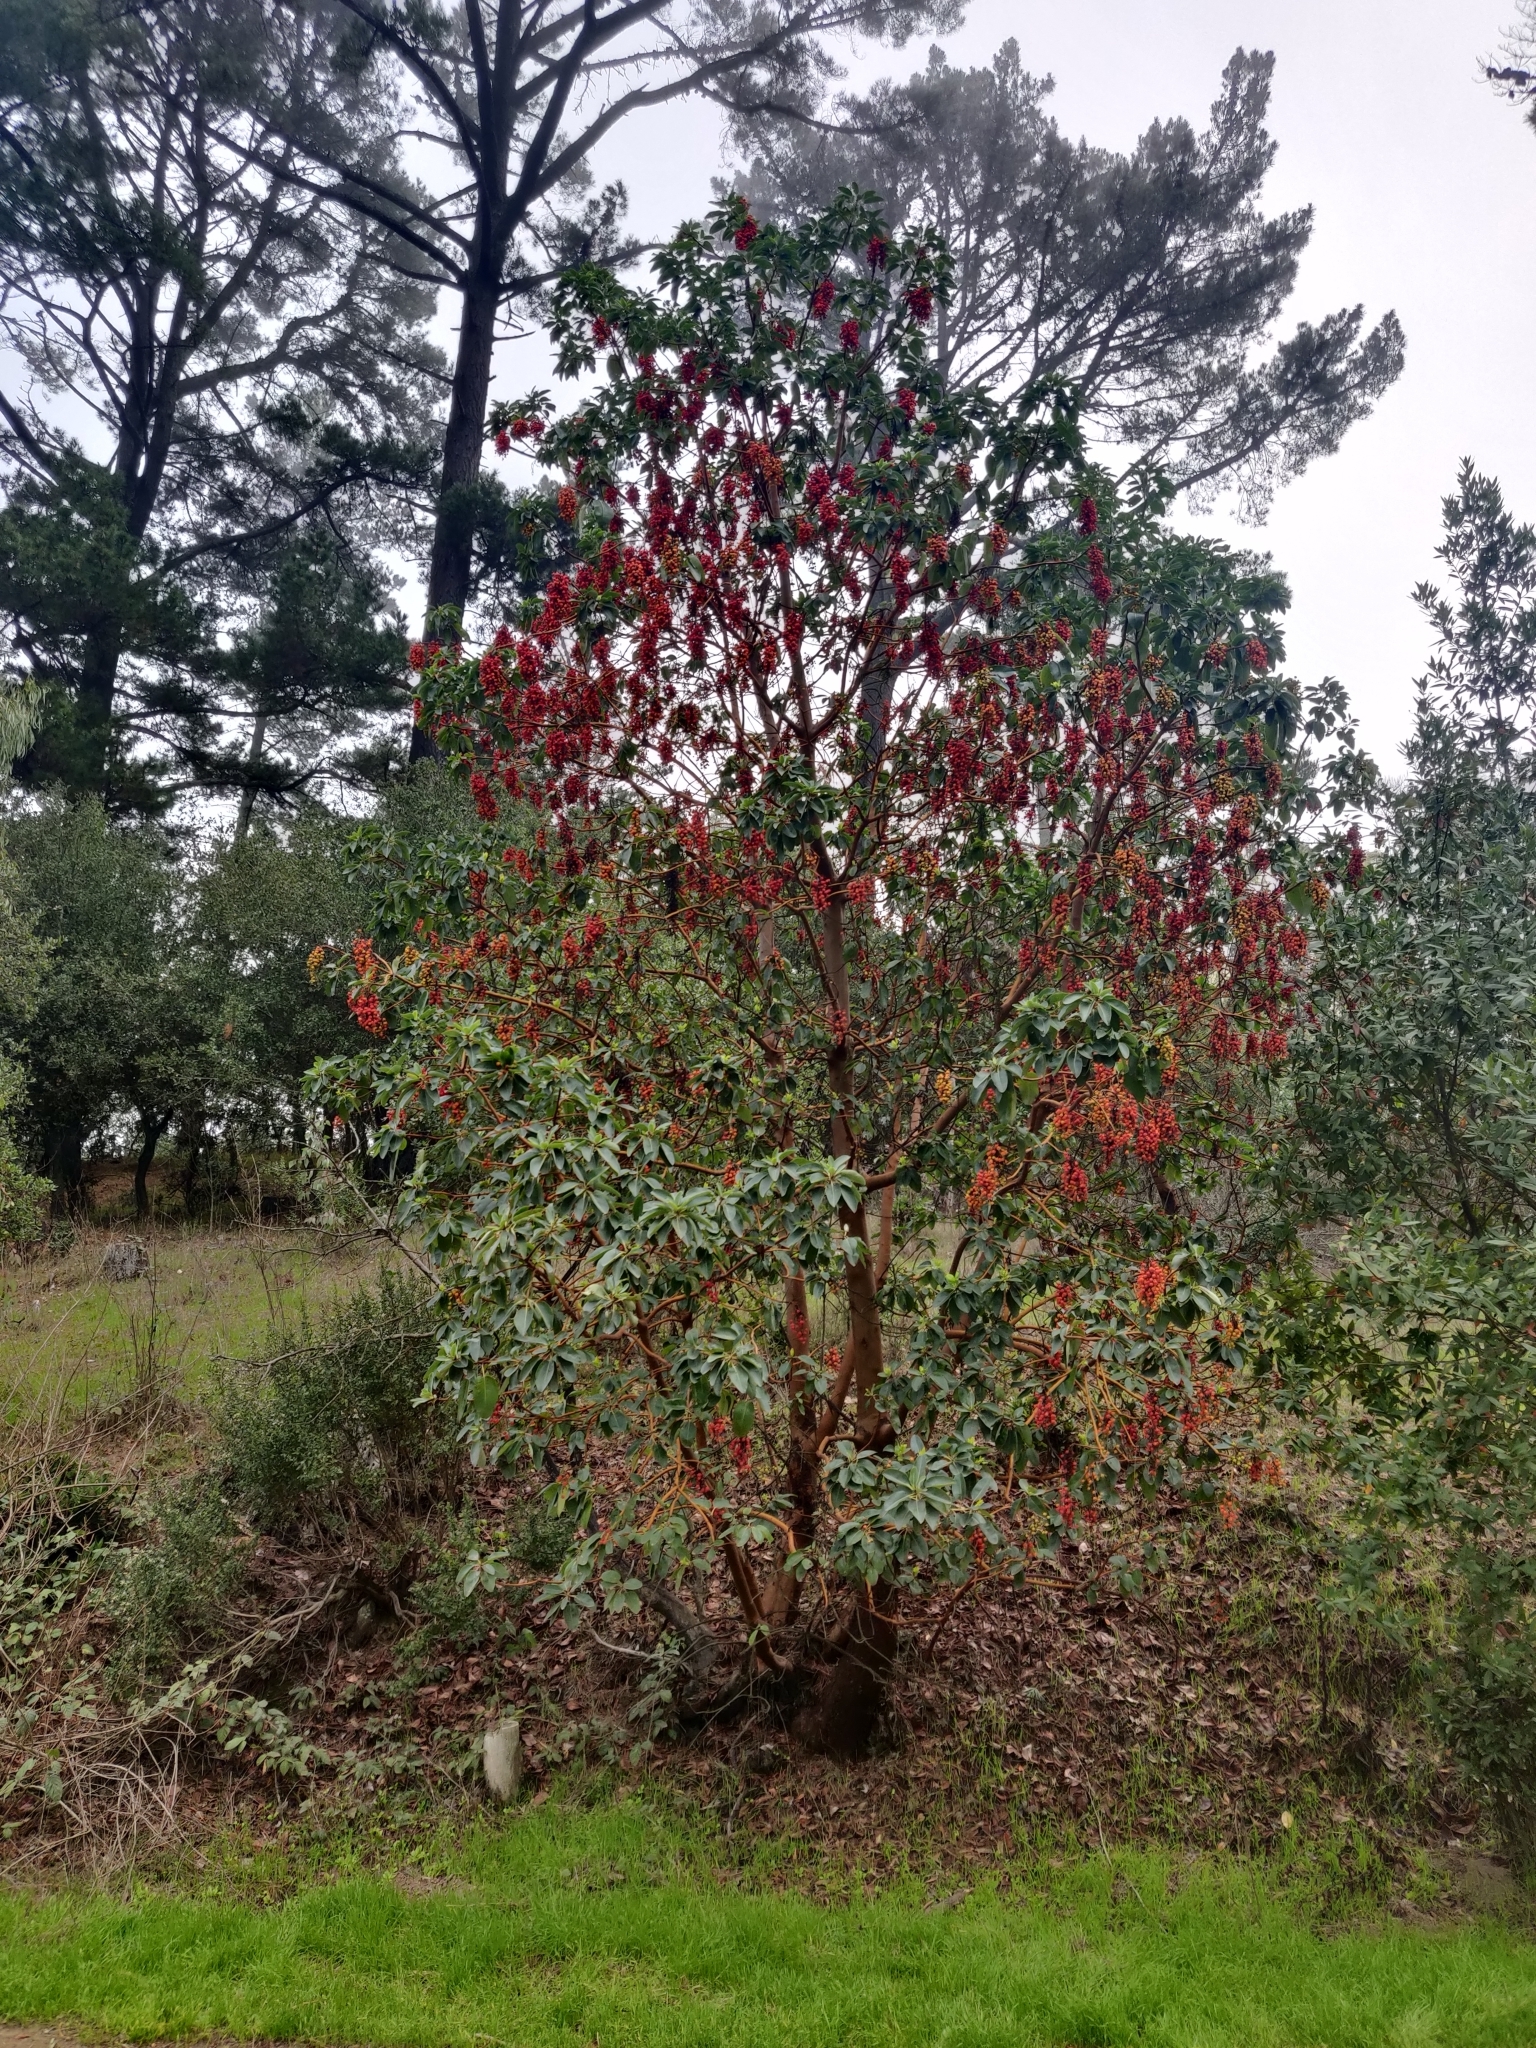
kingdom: Plantae
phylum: Tracheophyta
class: Magnoliopsida
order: Ericales
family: Ericaceae
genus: Arbutus
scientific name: Arbutus menziesii
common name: Pacific madrone
